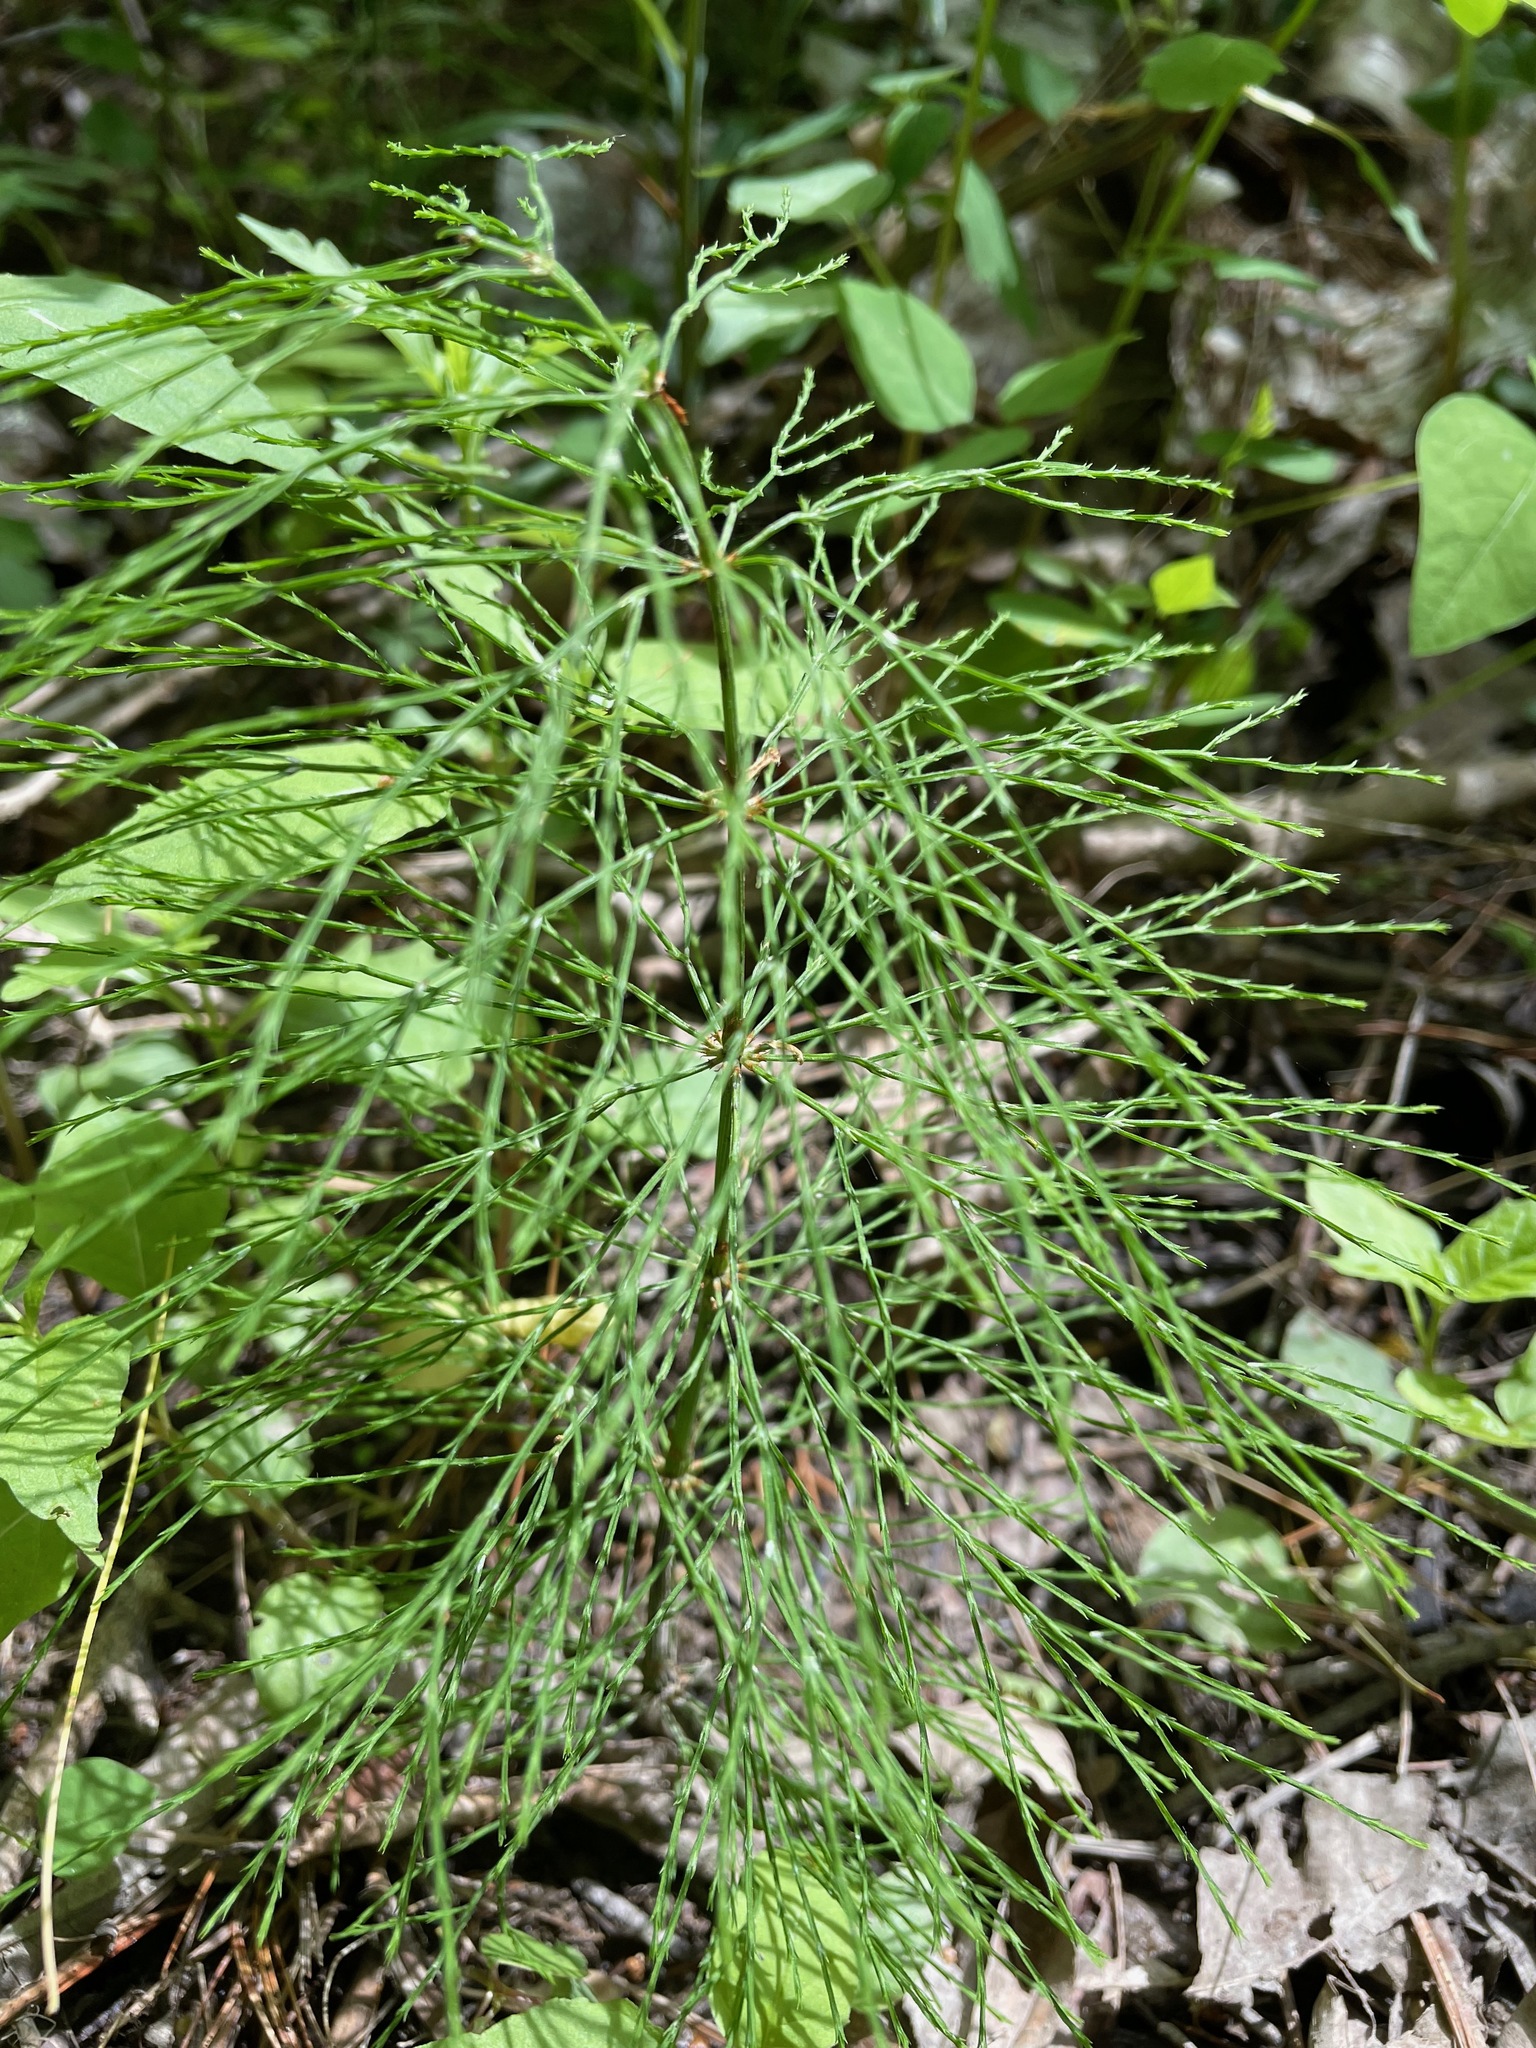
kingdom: Plantae
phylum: Tracheophyta
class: Polypodiopsida
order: Equisetales
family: Equisetaceae
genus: Equisetum
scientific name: Equisetum sylvaticum
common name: Wood horsetail
